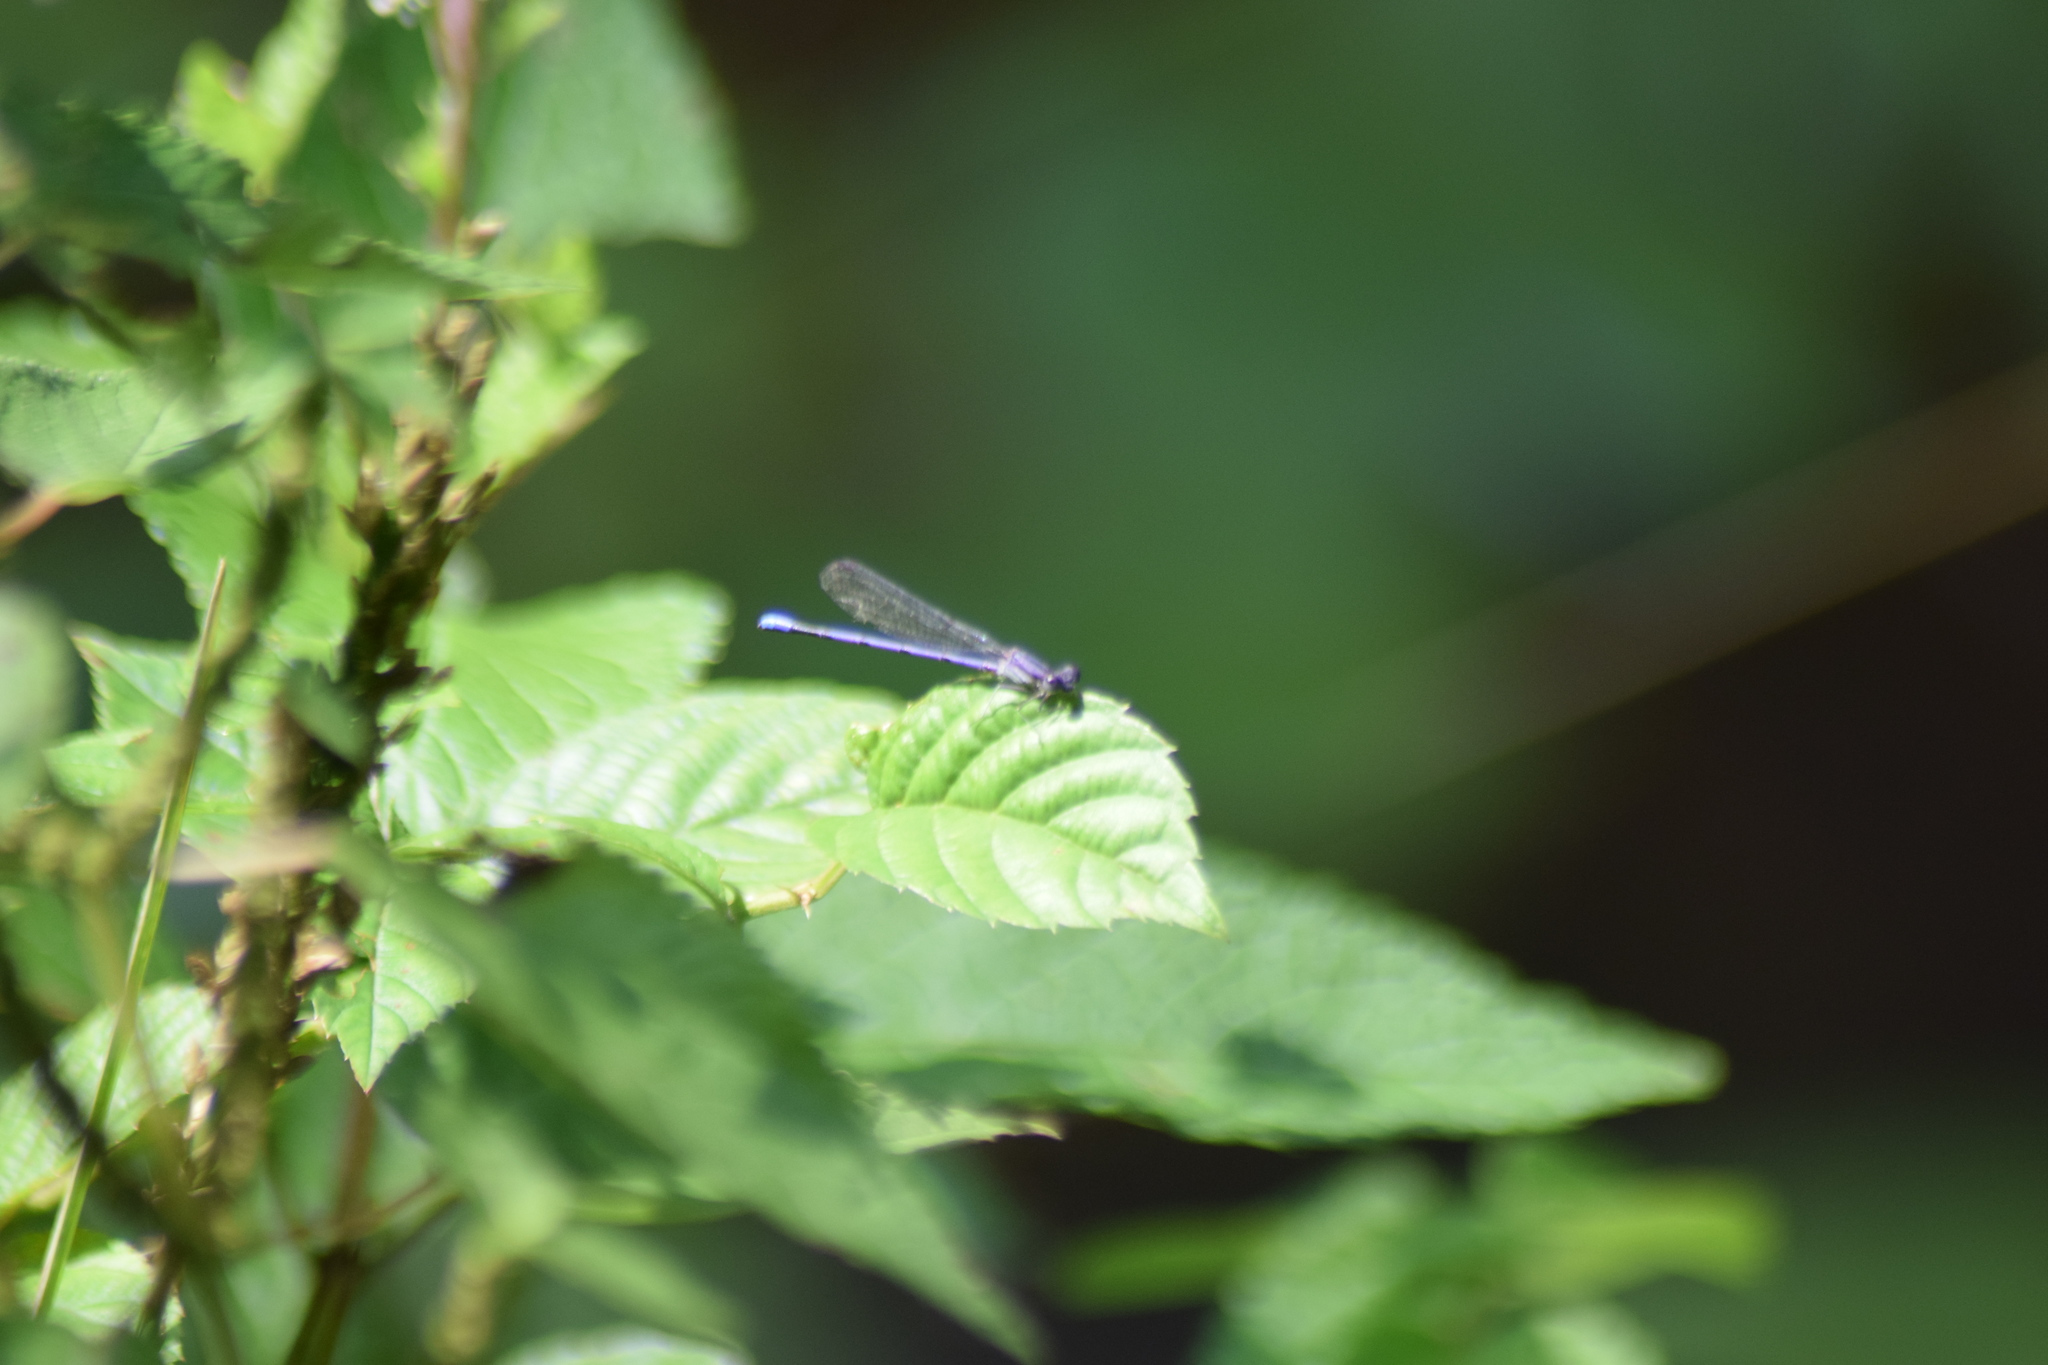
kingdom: Animalia
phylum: Arthropoda
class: Insecta
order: Odonata
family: Coenagrionidae
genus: Argia
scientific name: Argia fumipennis
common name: Variable dancer
